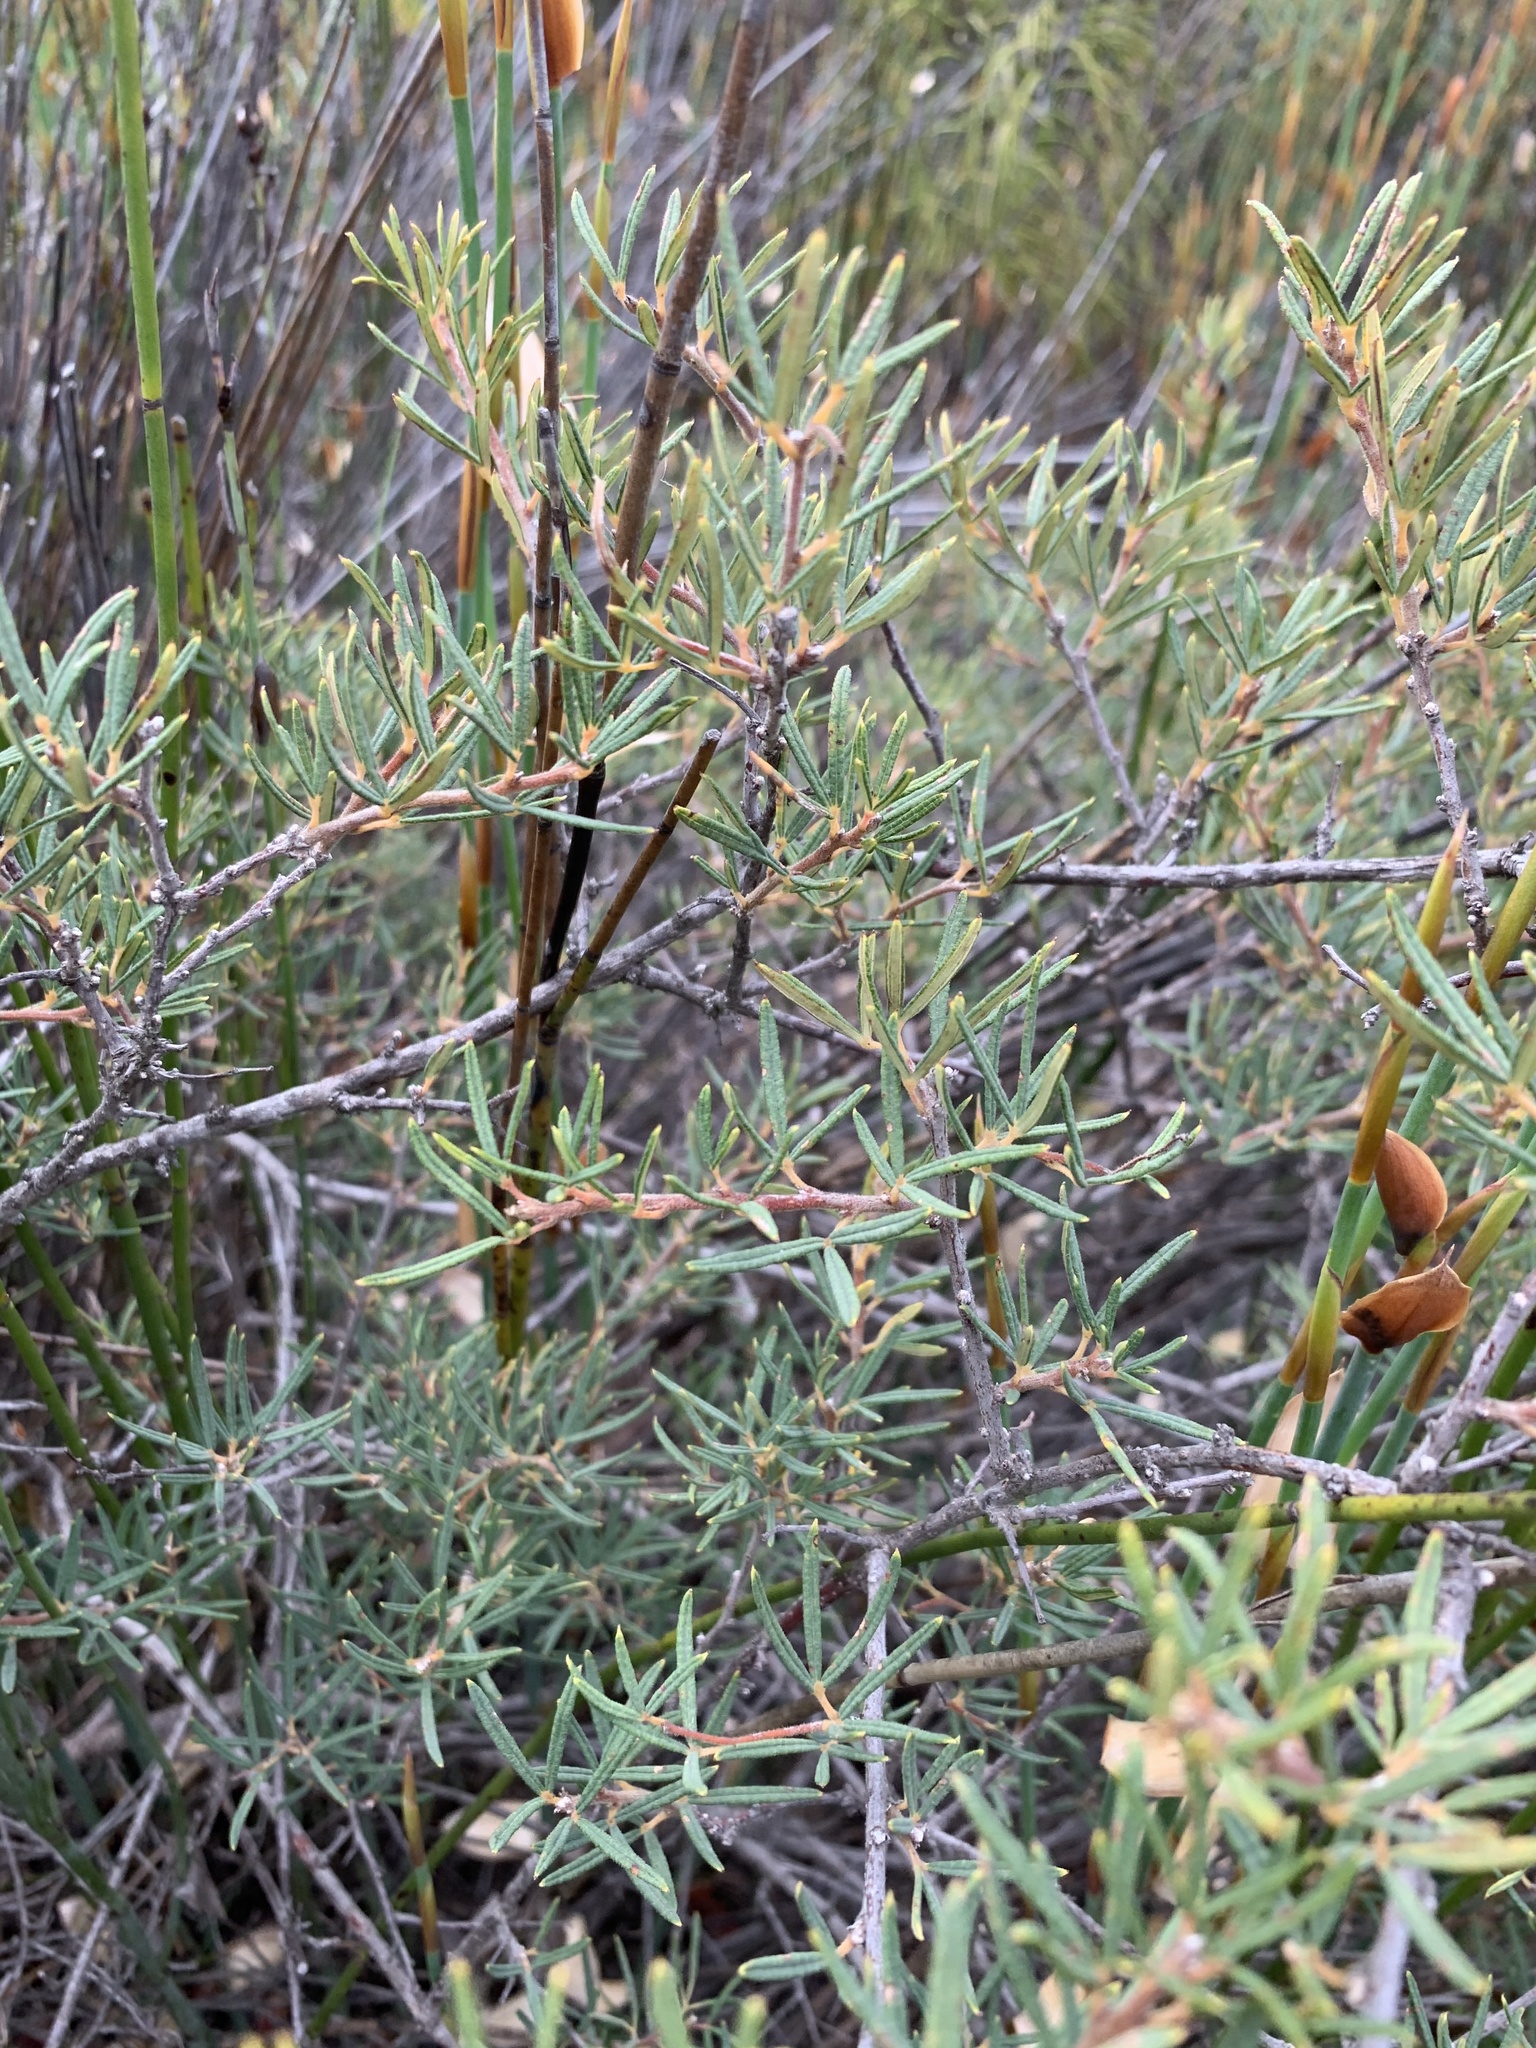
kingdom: Plantae
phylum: Tracheophyta
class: Magnoliopsida
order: Sapindales
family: Anacardiaceae
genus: Searsia
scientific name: Searsia rosmarinifolia
